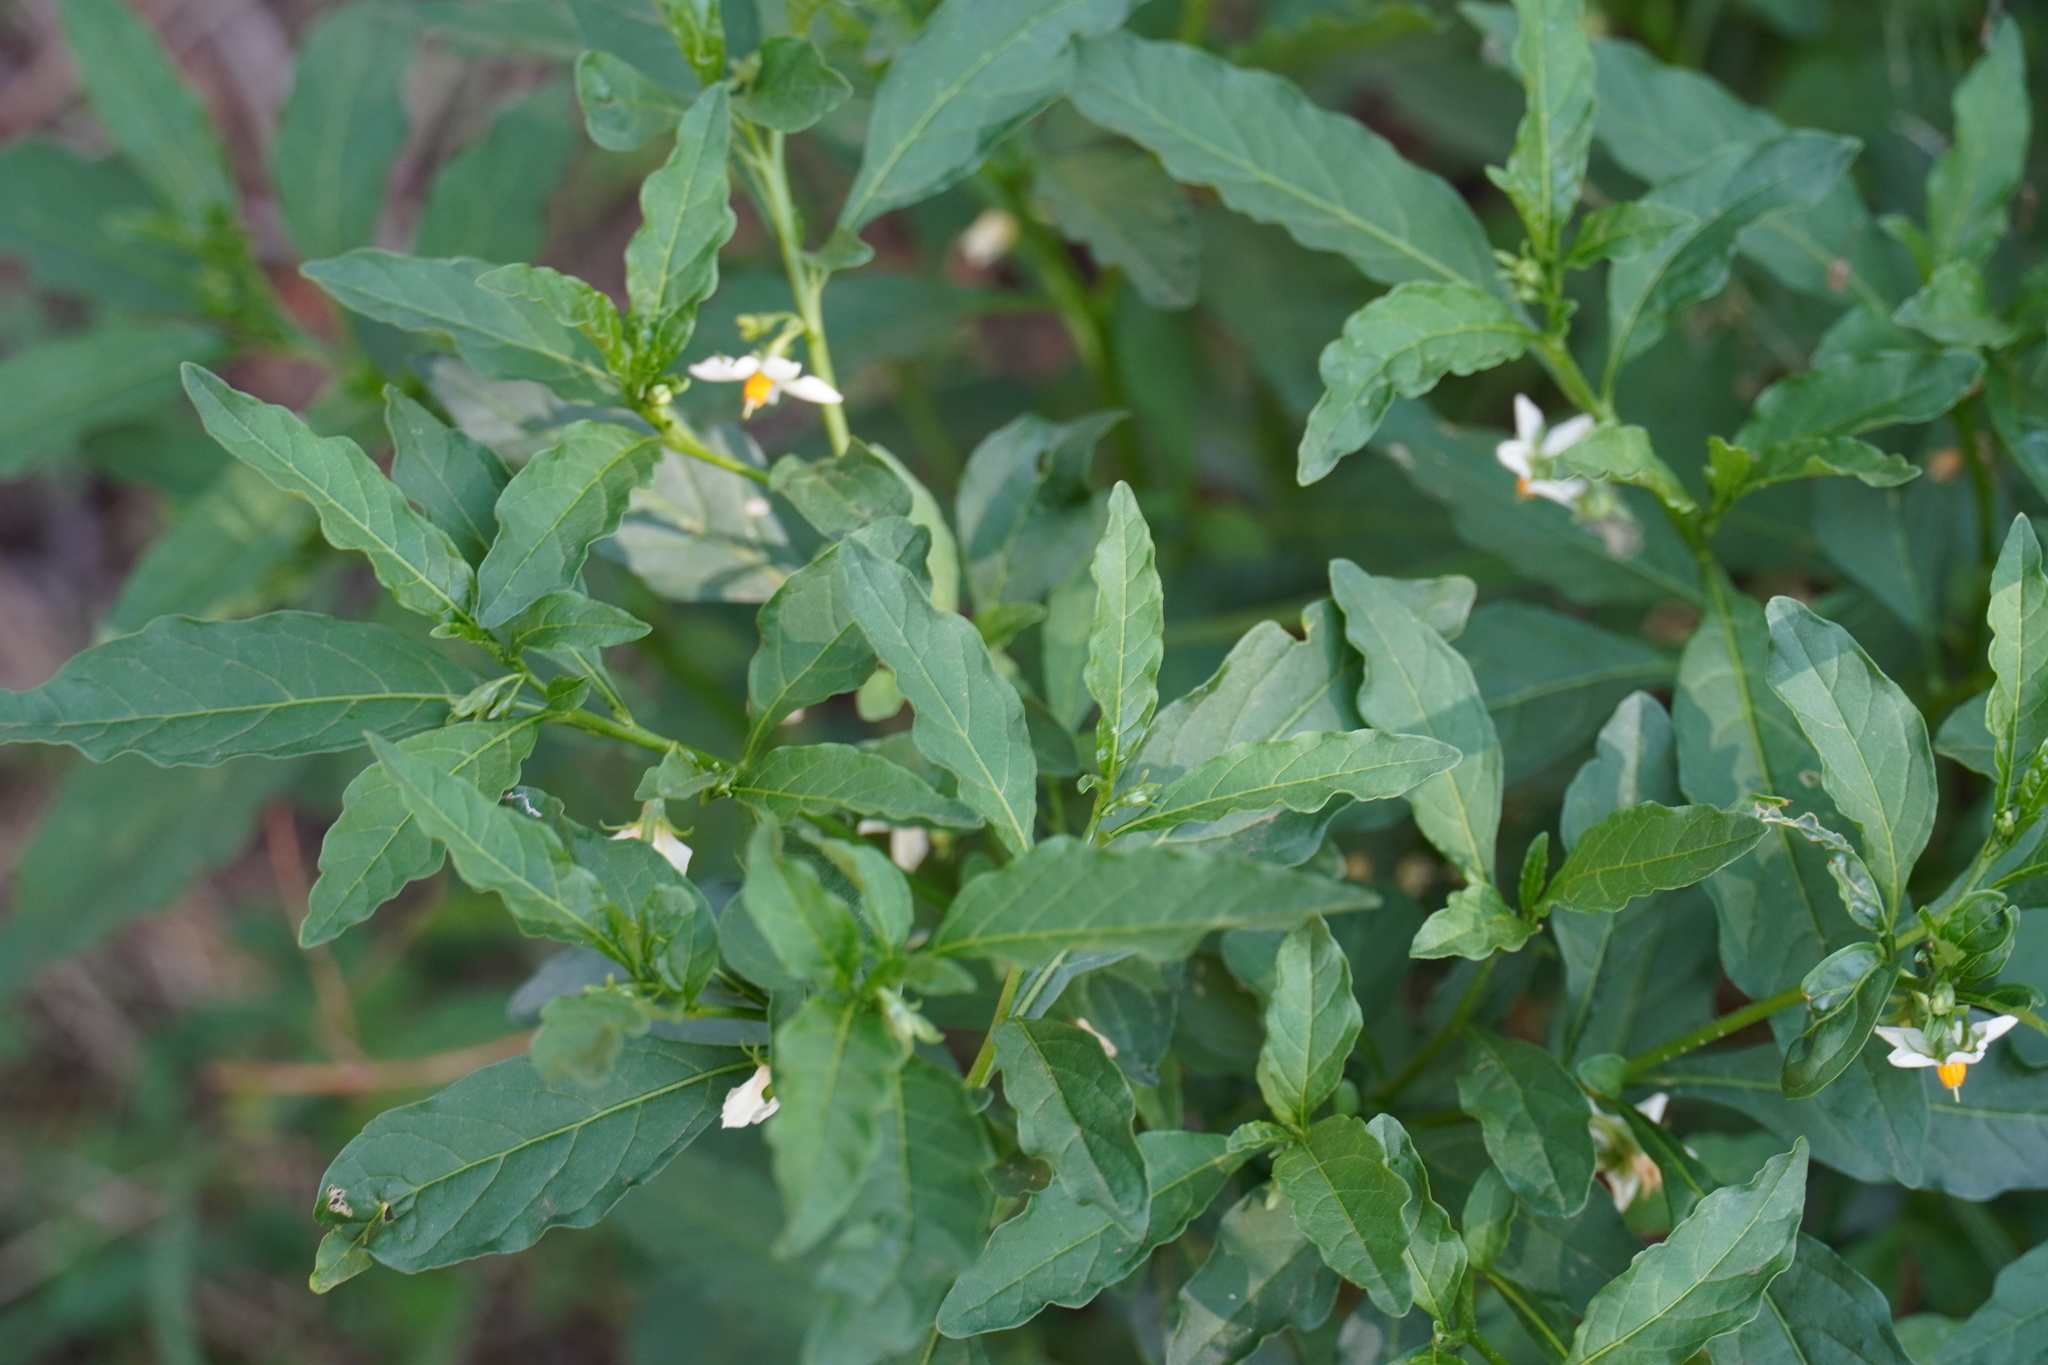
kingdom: Plantae
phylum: Tracheophyta
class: Magnoliopsida
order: Solanales
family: Solanaceae
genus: Solanum
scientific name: Solanum pseudocapsicum
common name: Jerusalem cherry
